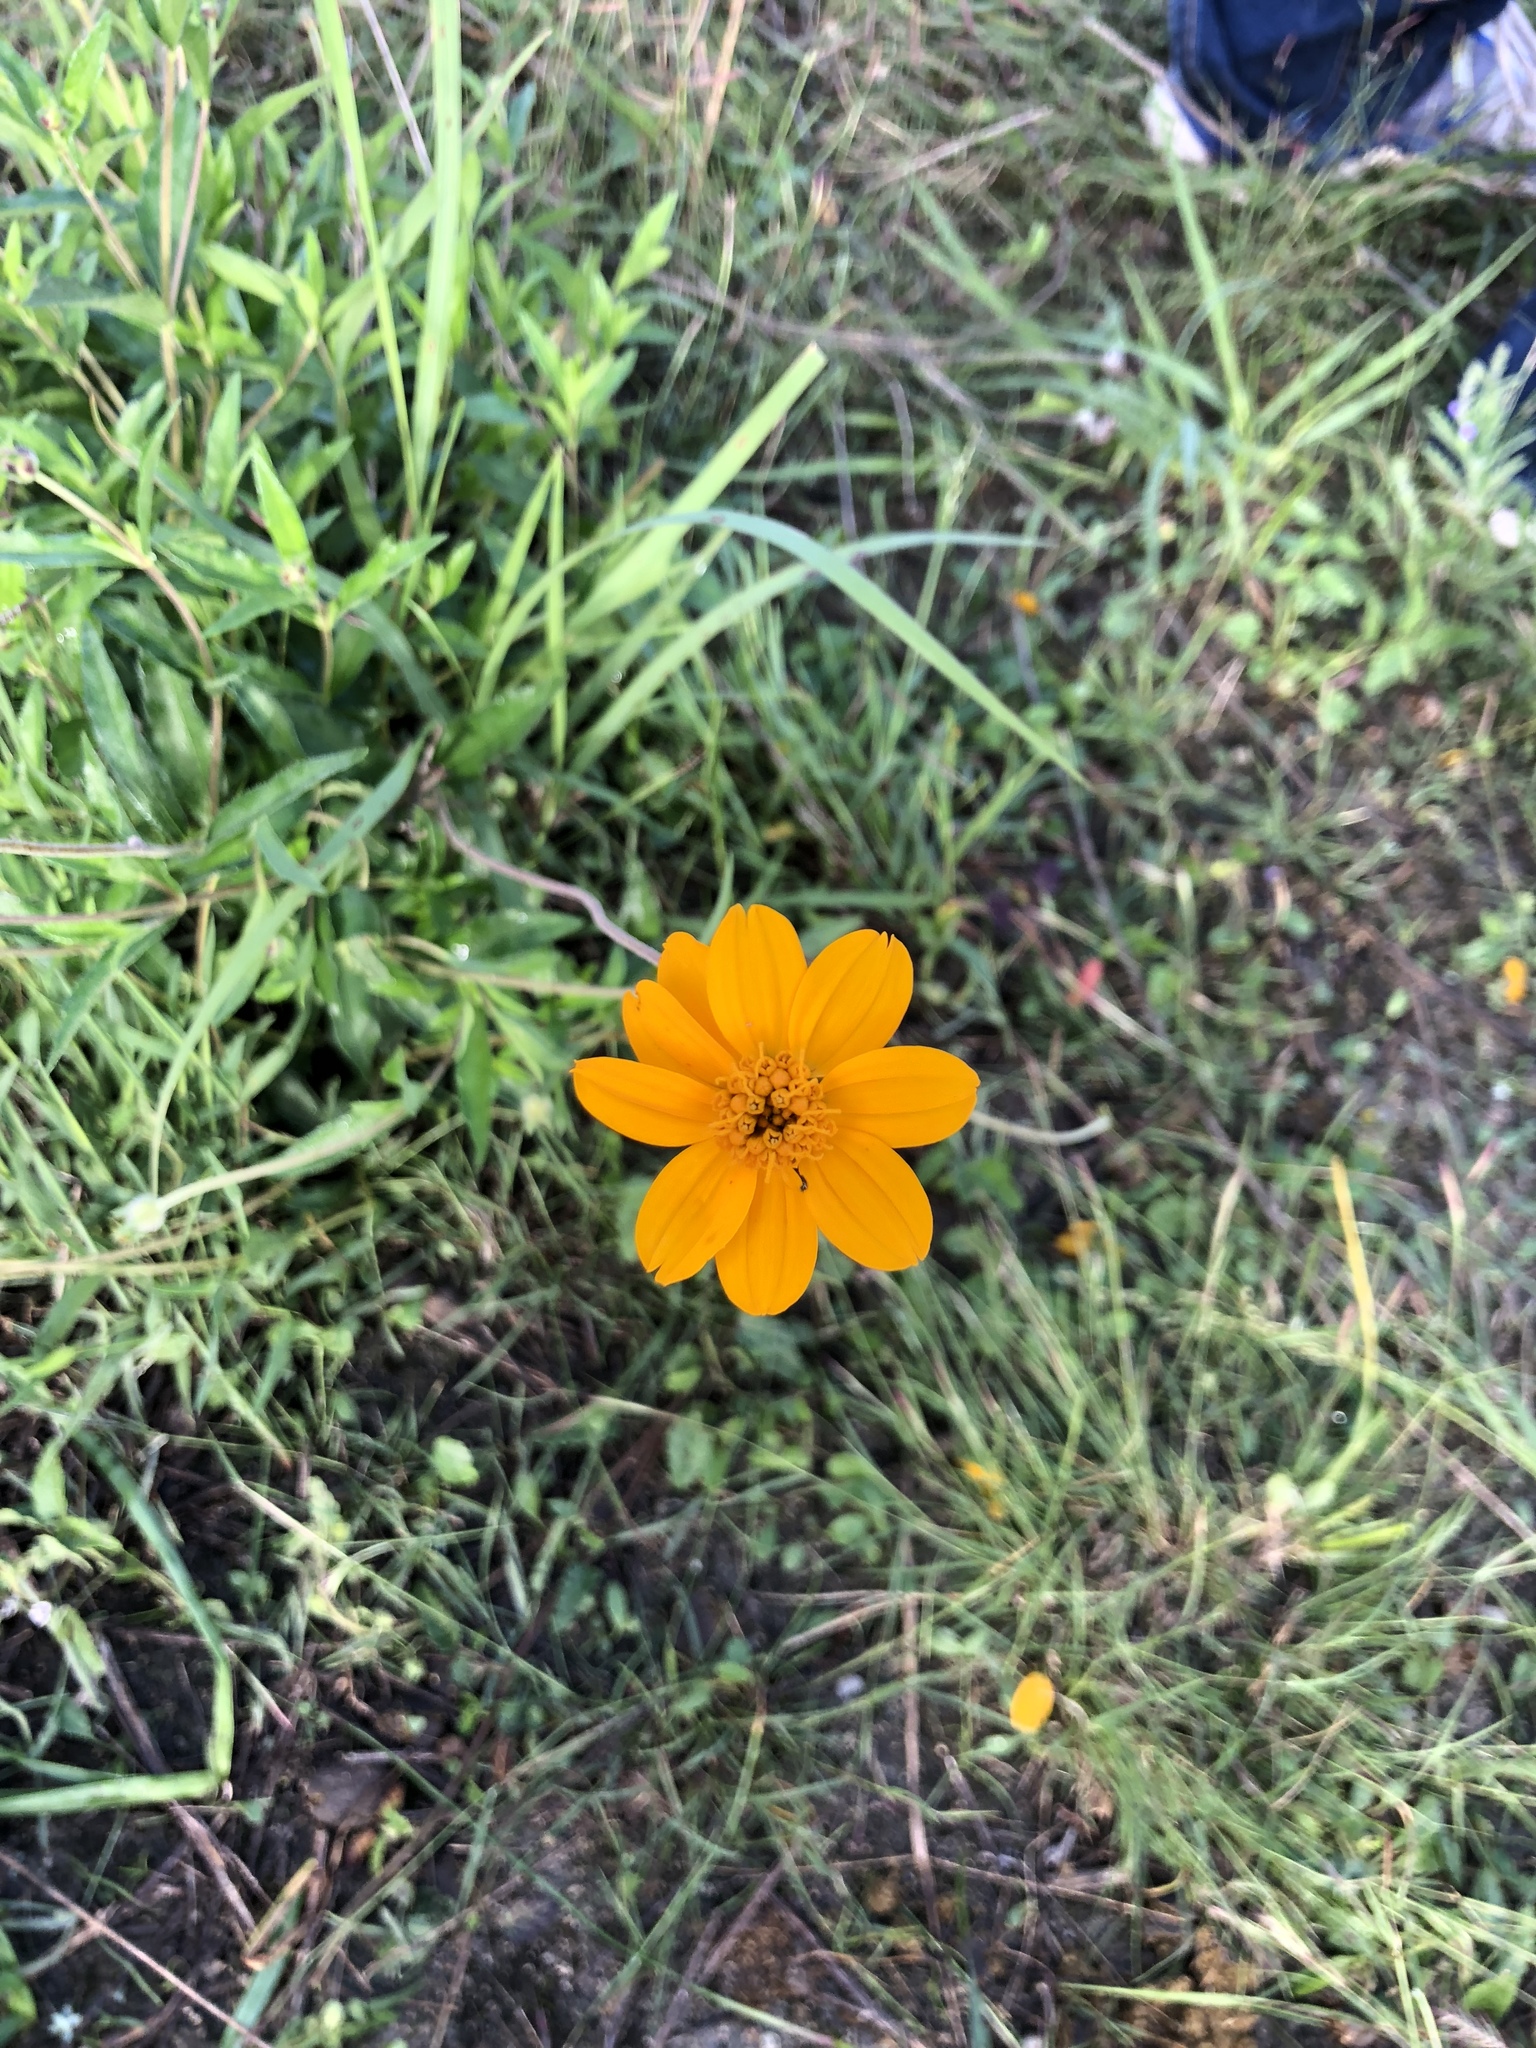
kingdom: Plantae
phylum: Tracheophyta
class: Magnoliopsida
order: Asterales
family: Asteraceae
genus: Wedelia
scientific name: Wedelia acapulcensis
